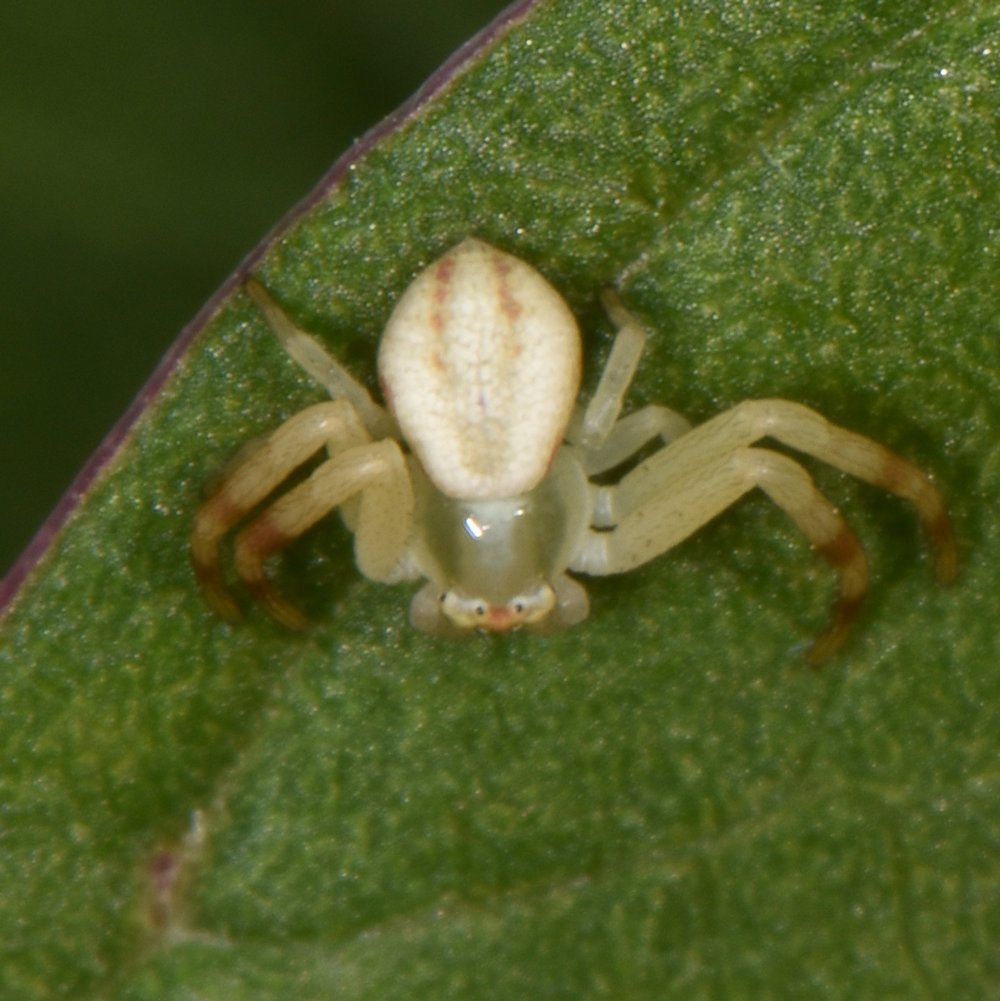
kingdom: Animalia
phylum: Arthropoda
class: Arachnida
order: Araneae
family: Thomisidae
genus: Misumena
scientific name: Misumena vatia
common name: Goldenrod crab spider
